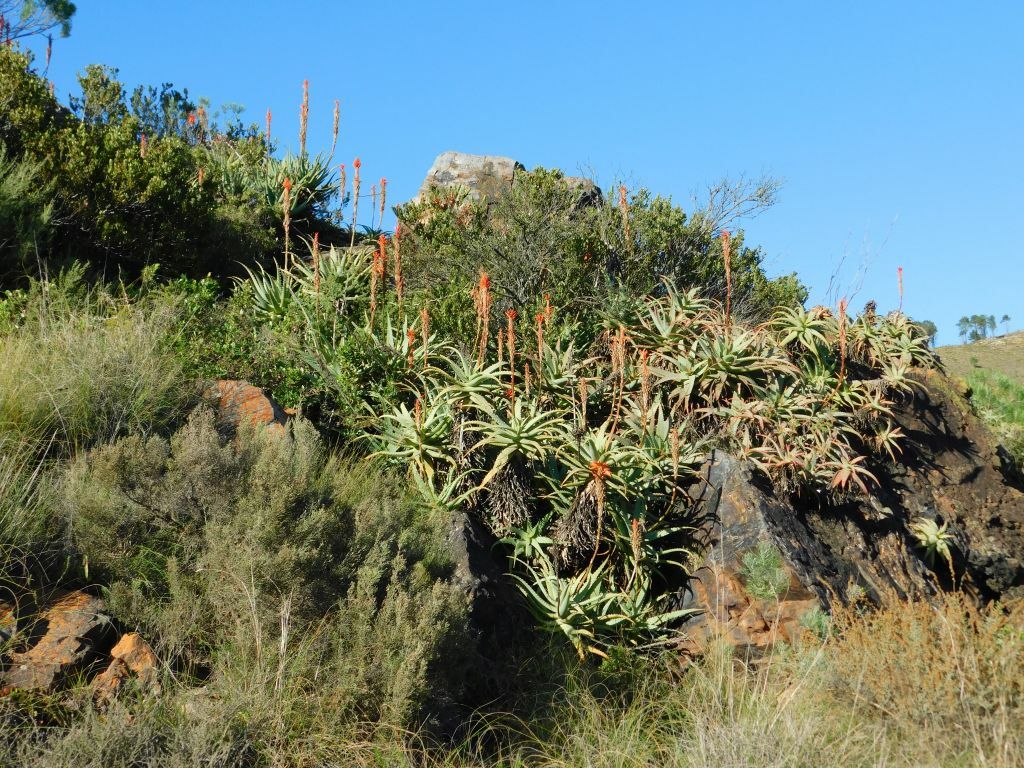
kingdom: Plantae
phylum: Tracheophyta
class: Liliopsida
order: Asparagales
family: Asphodelaceae
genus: Aloe
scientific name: Aloe arborescens
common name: Candelabra aloe
